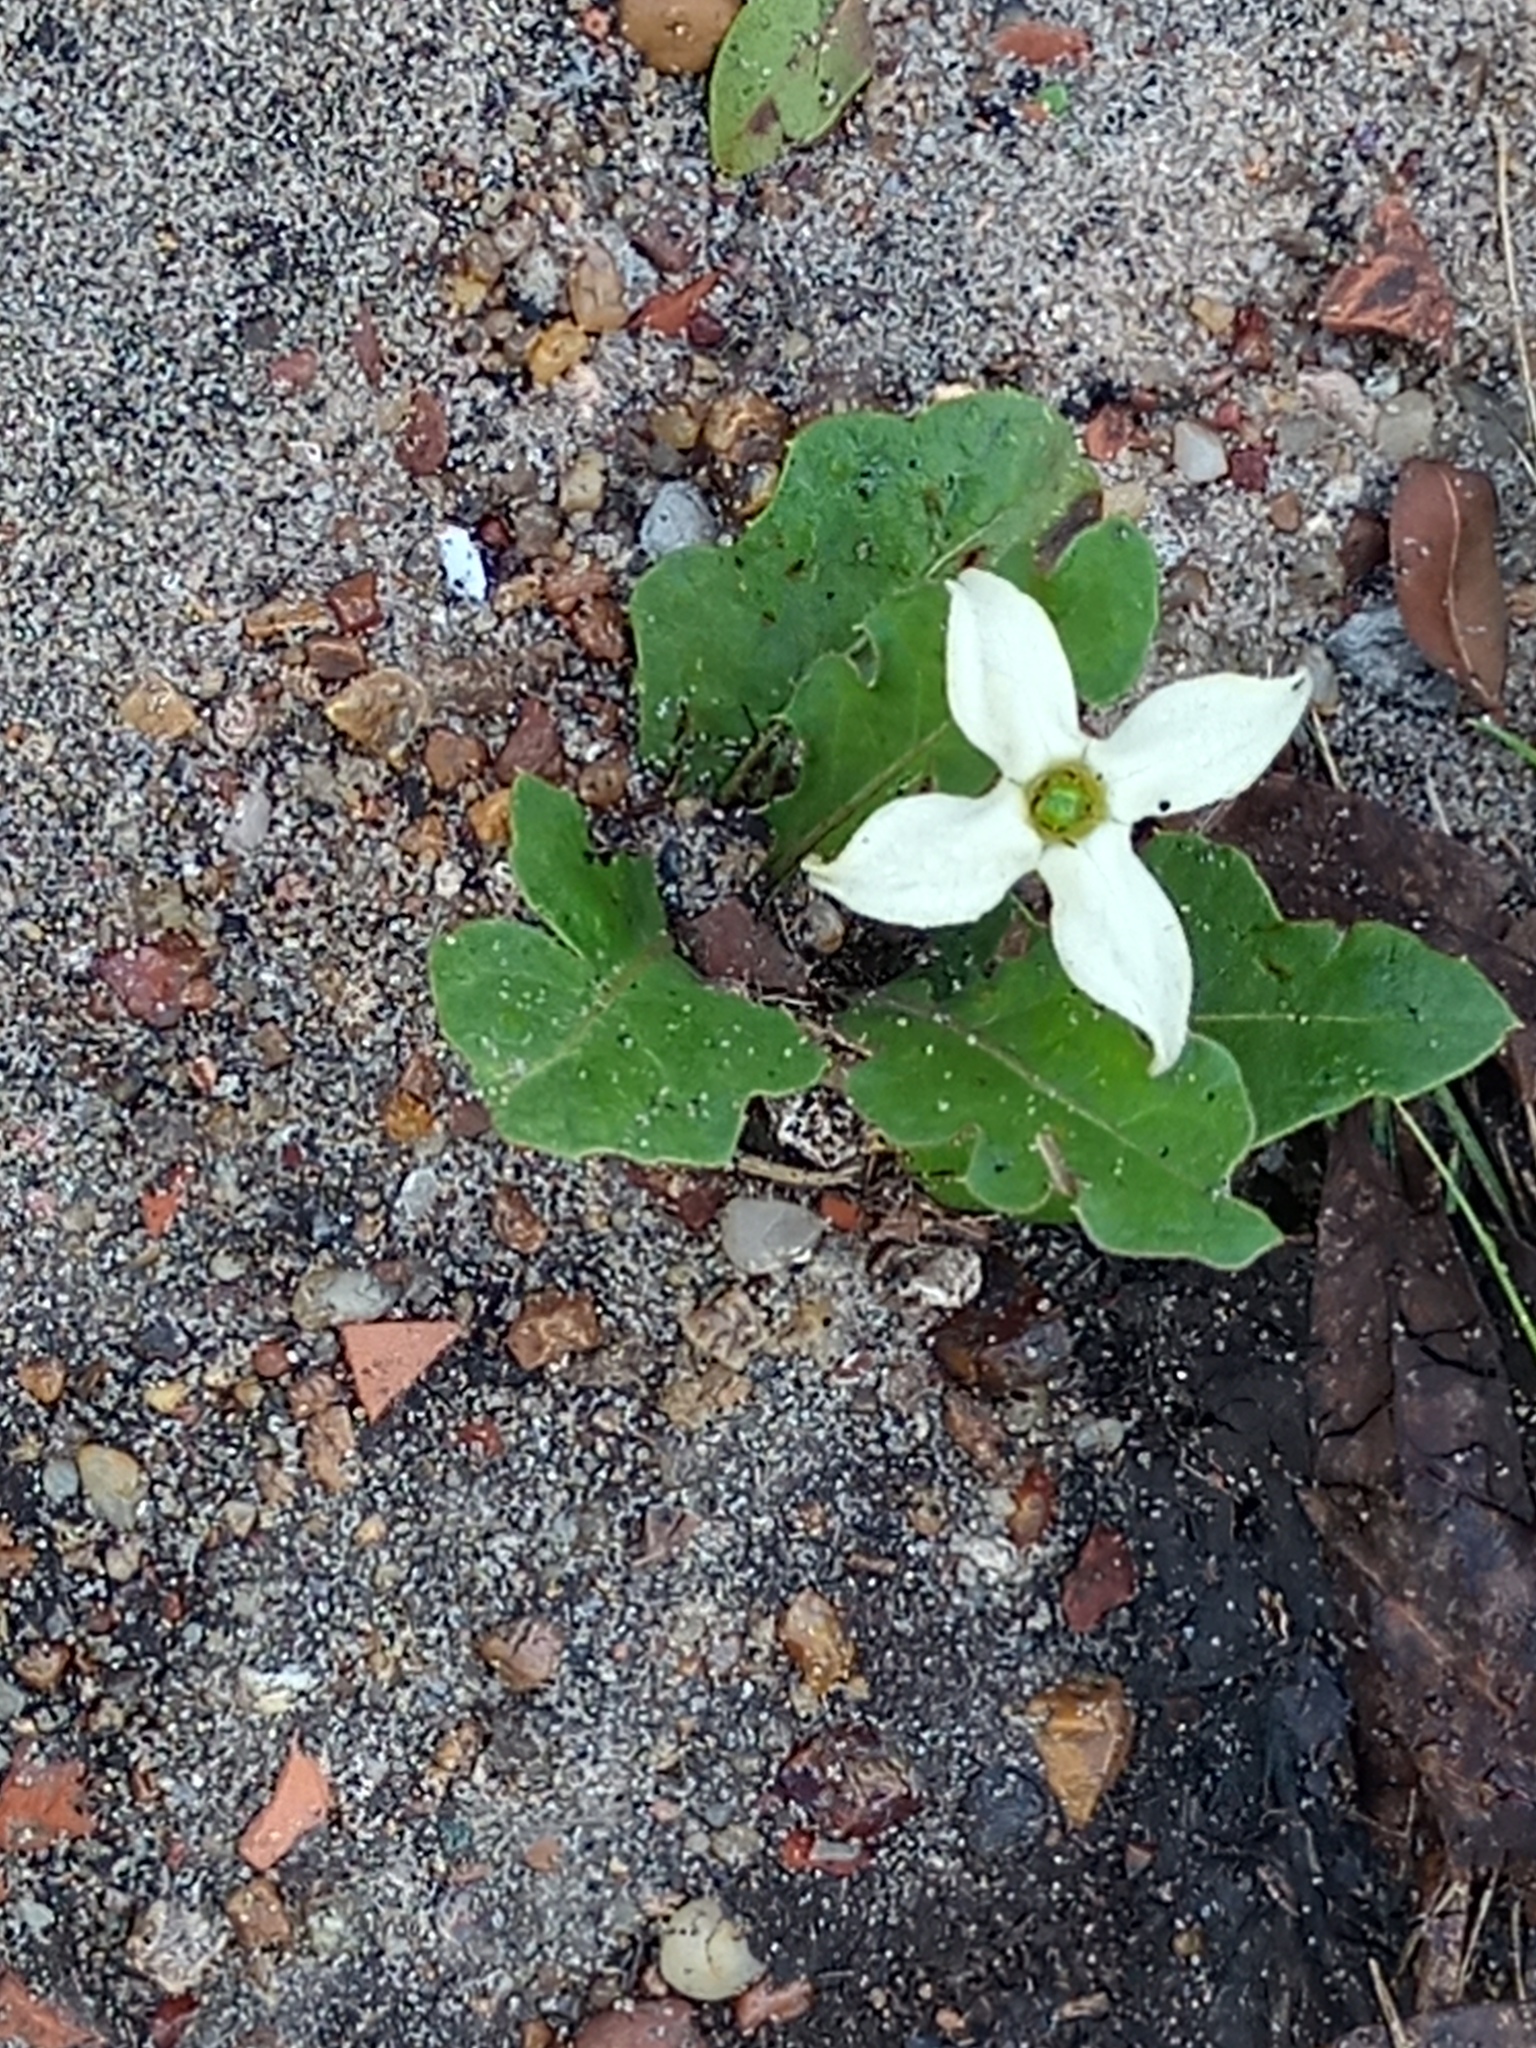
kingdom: Plantae
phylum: Tracheophyta
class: Magnoliopsida
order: Solanales
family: Solanaceae
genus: Jaborosa
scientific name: Jaborosa runcinata
